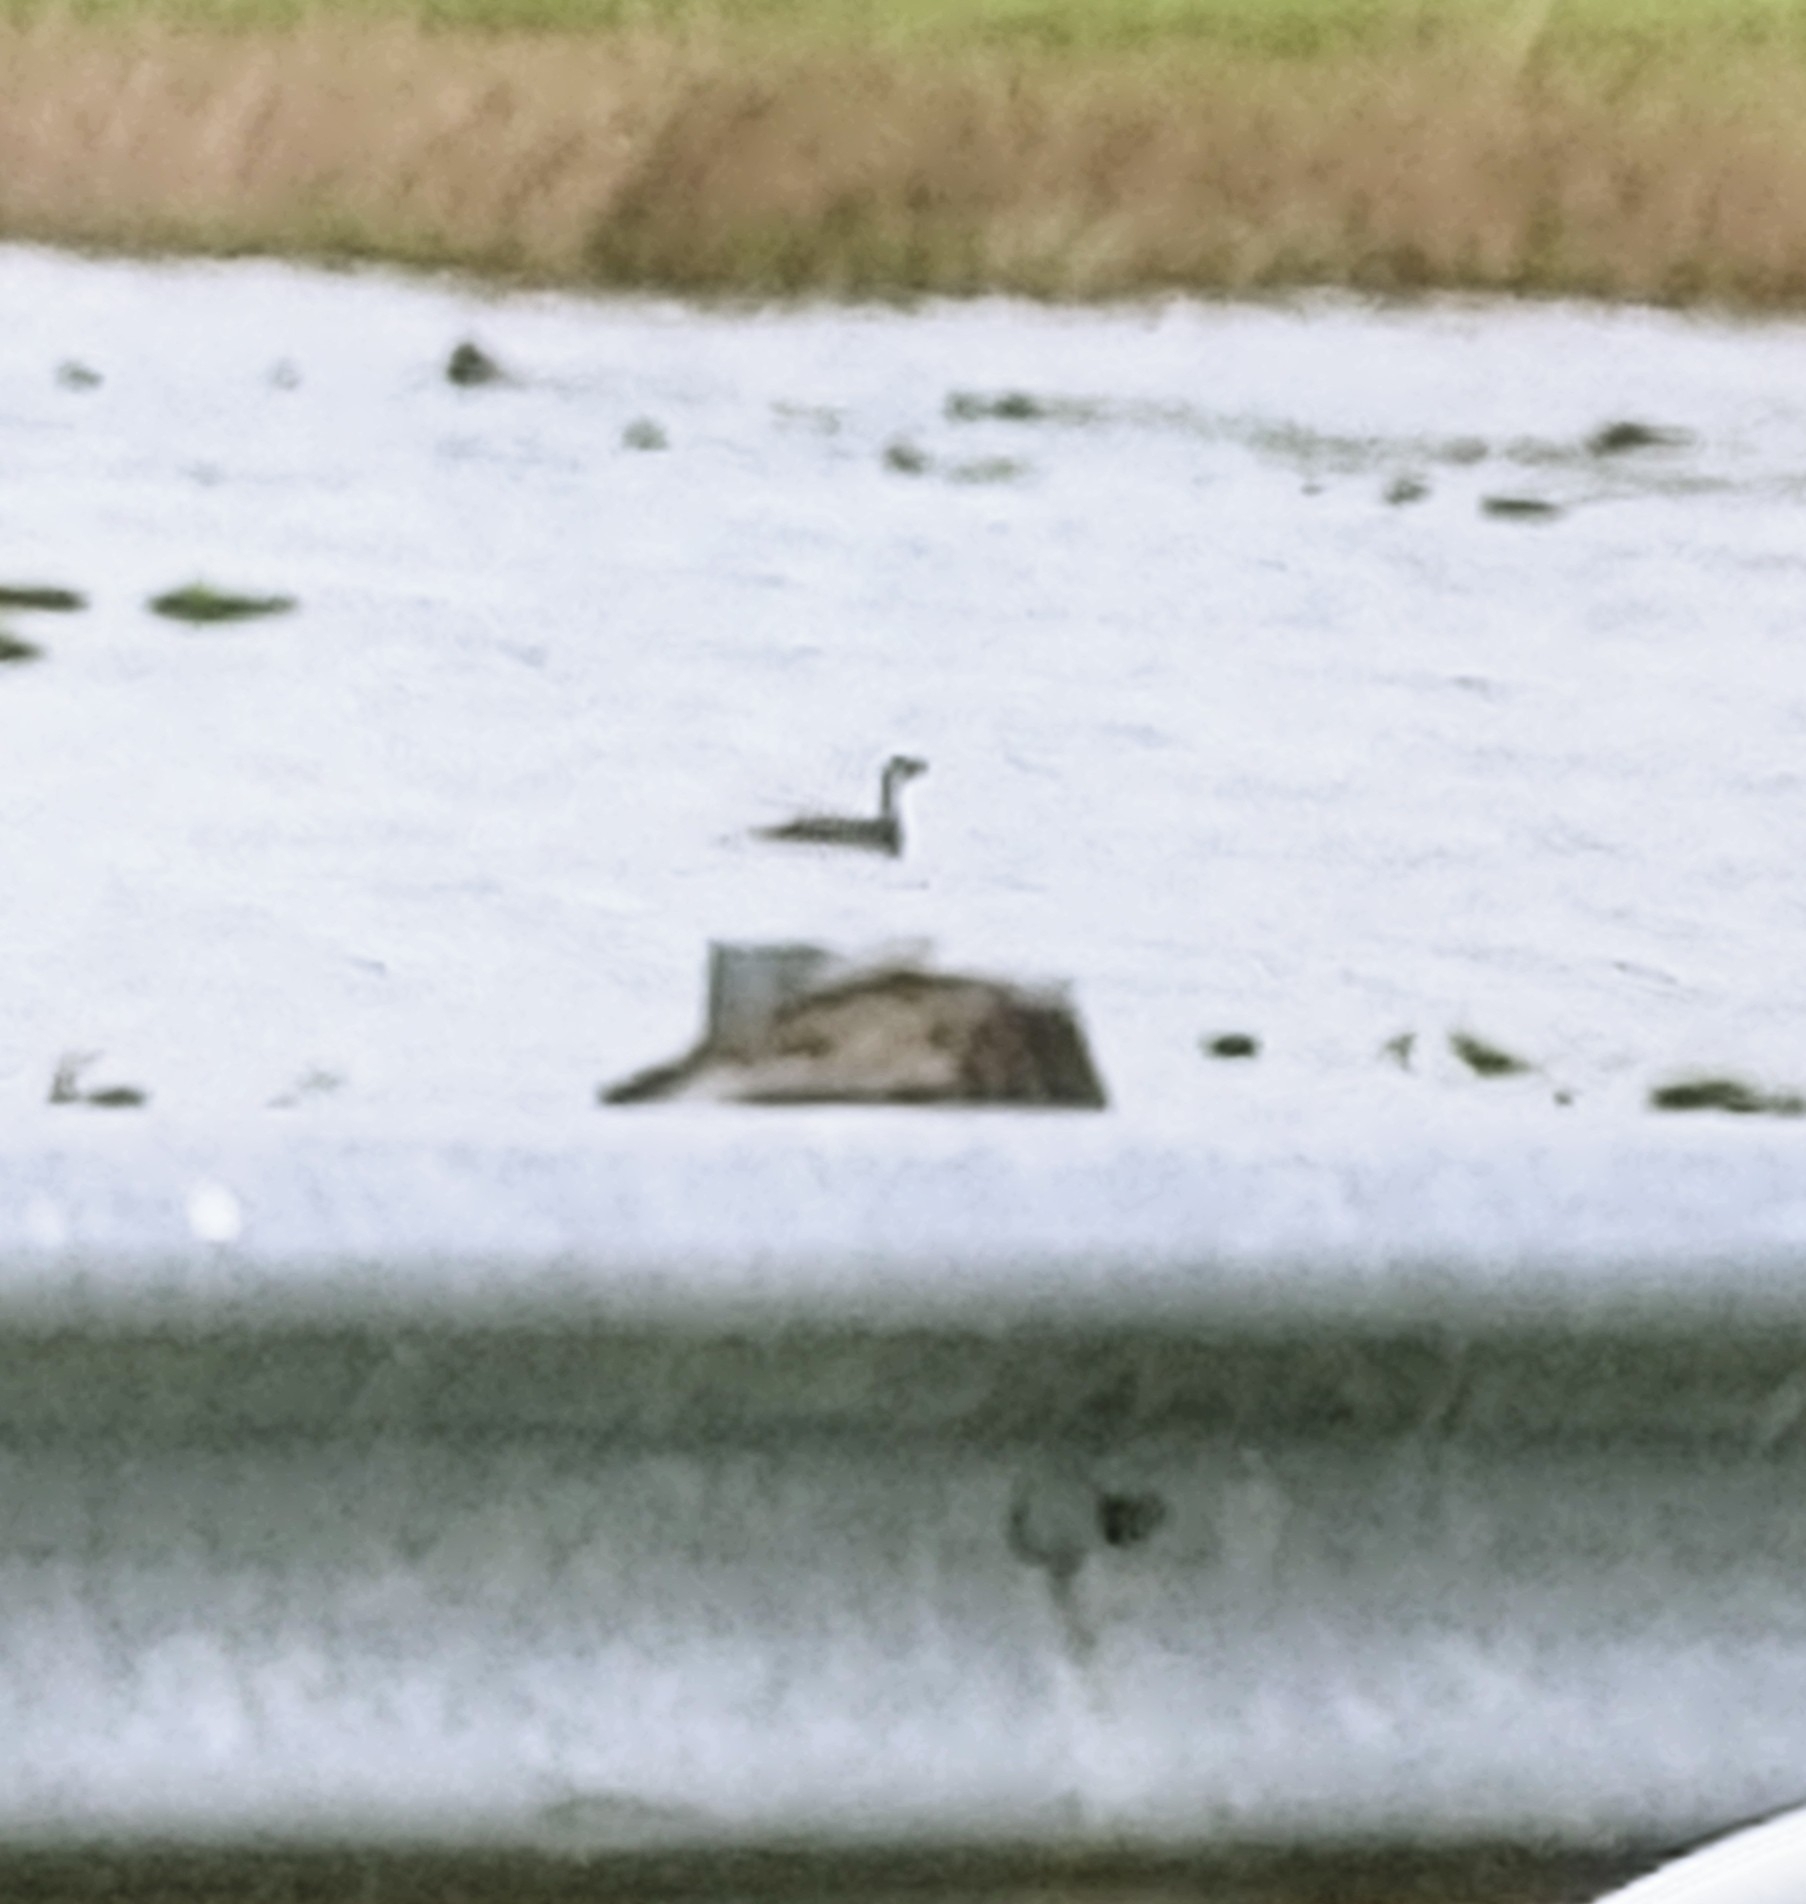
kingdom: Animalia
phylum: Chordata
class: Aves
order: Podicipediformes
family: Podicipedidae
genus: Podilymbus
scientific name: Podilymbus podiceps
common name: Pied-billed grebe
